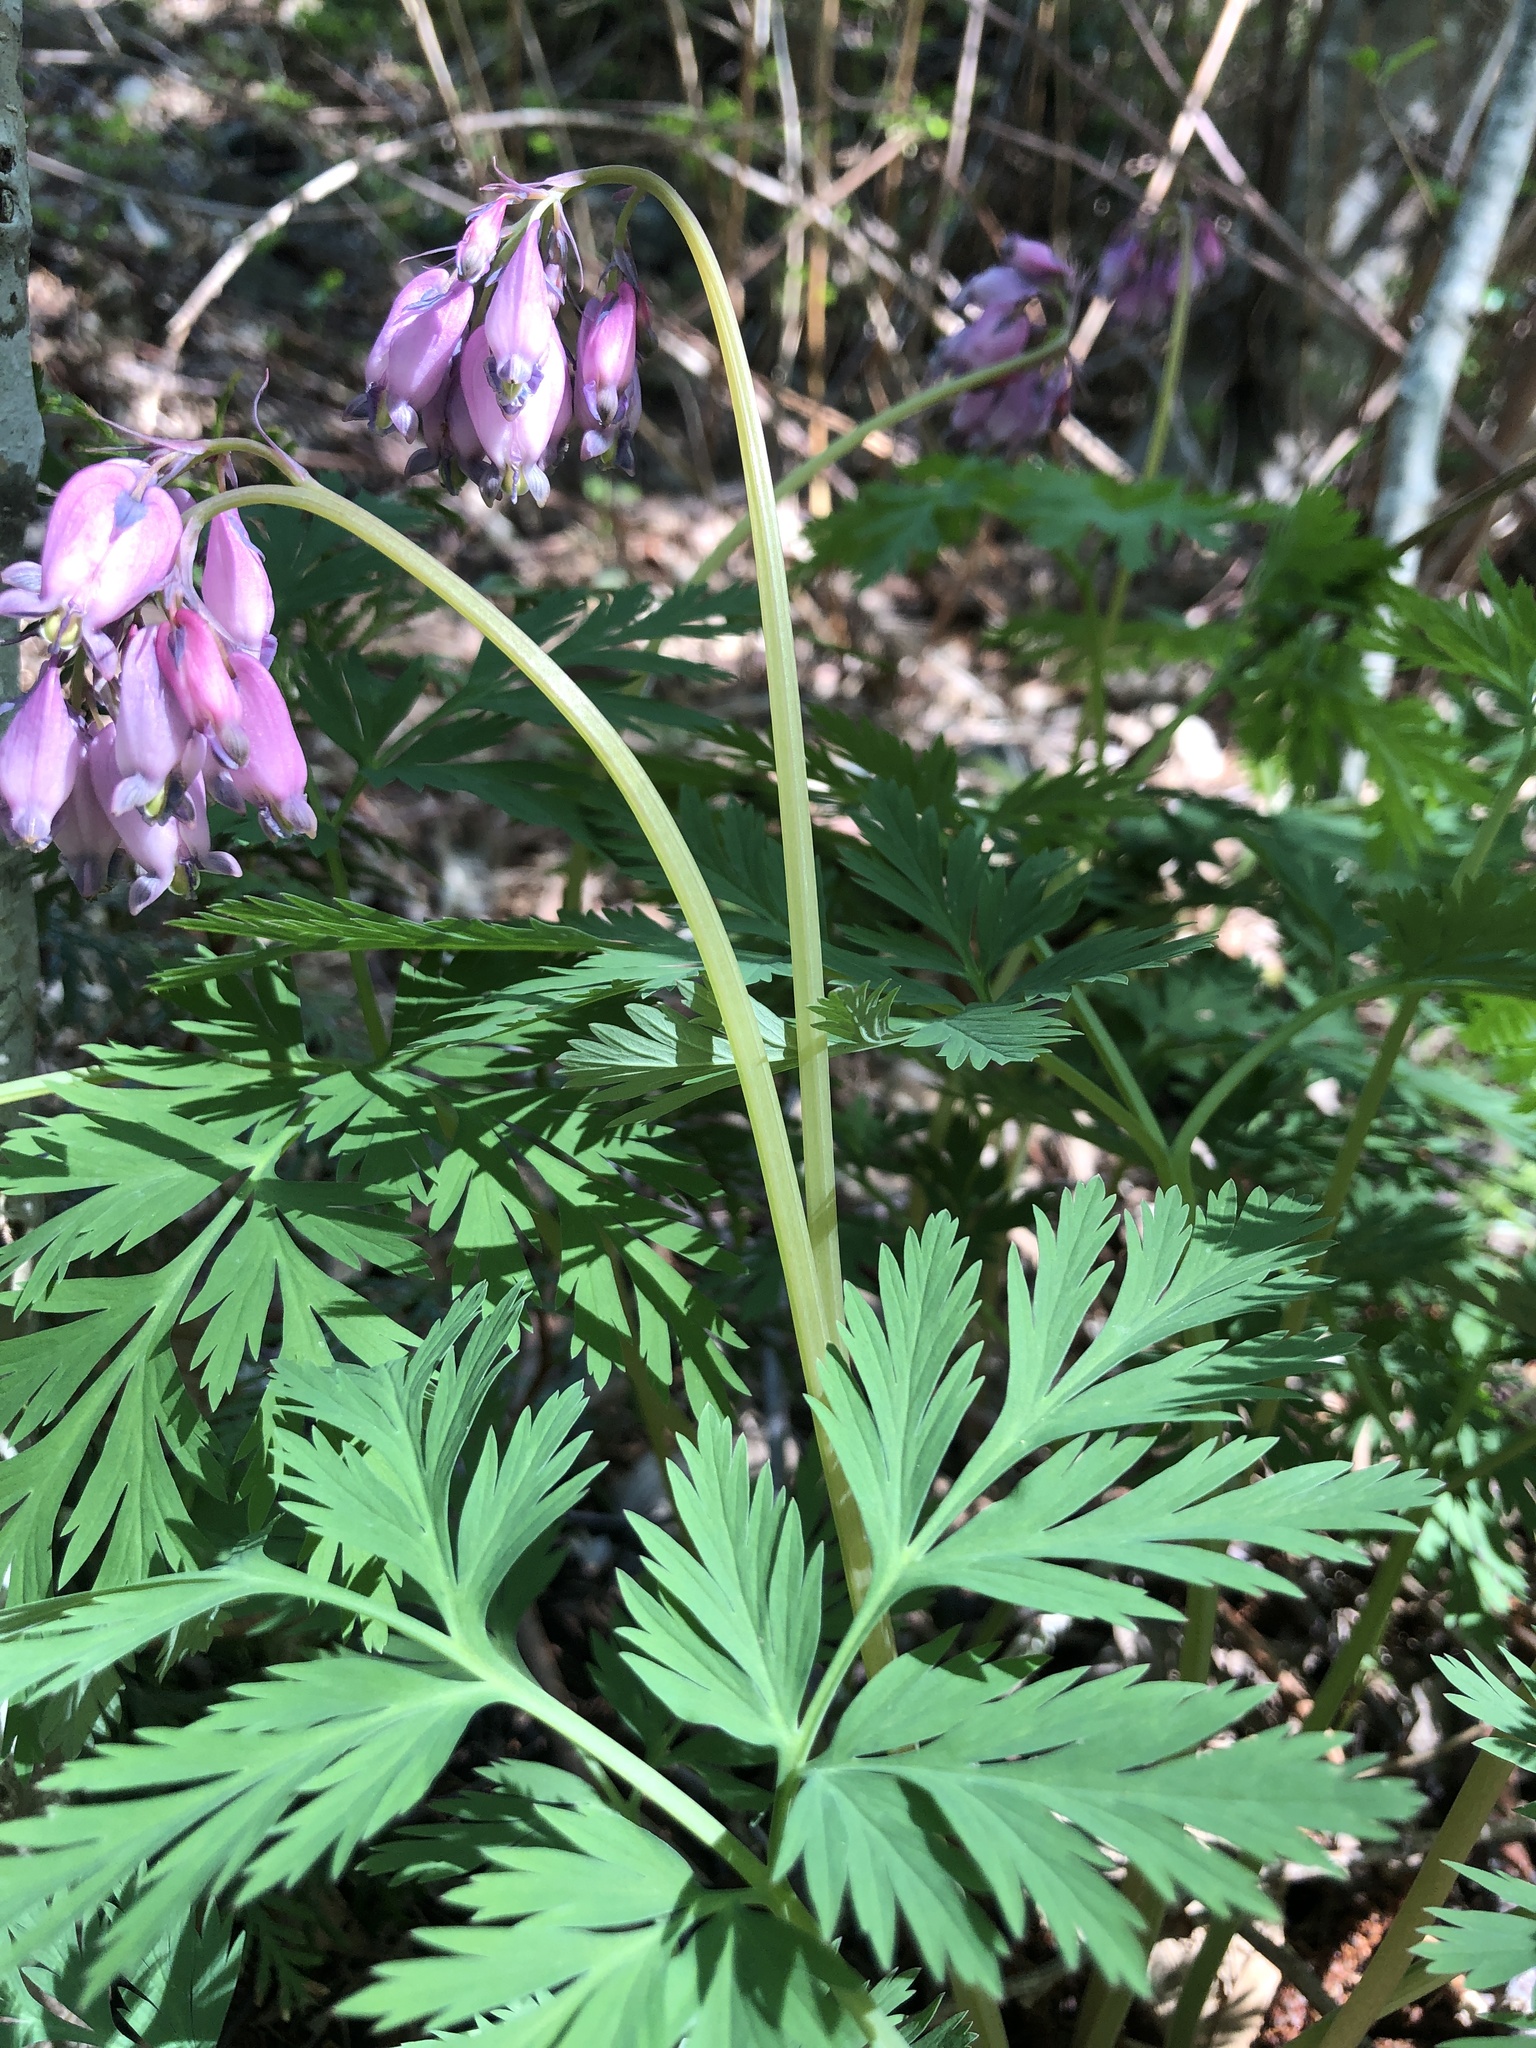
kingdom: Plantae
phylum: Tracheophyta
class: Magnoliopsida
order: Ranunculales
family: Papaveraceae
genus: Dicentra
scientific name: Dicentra formosa
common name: Bleeding-heart
